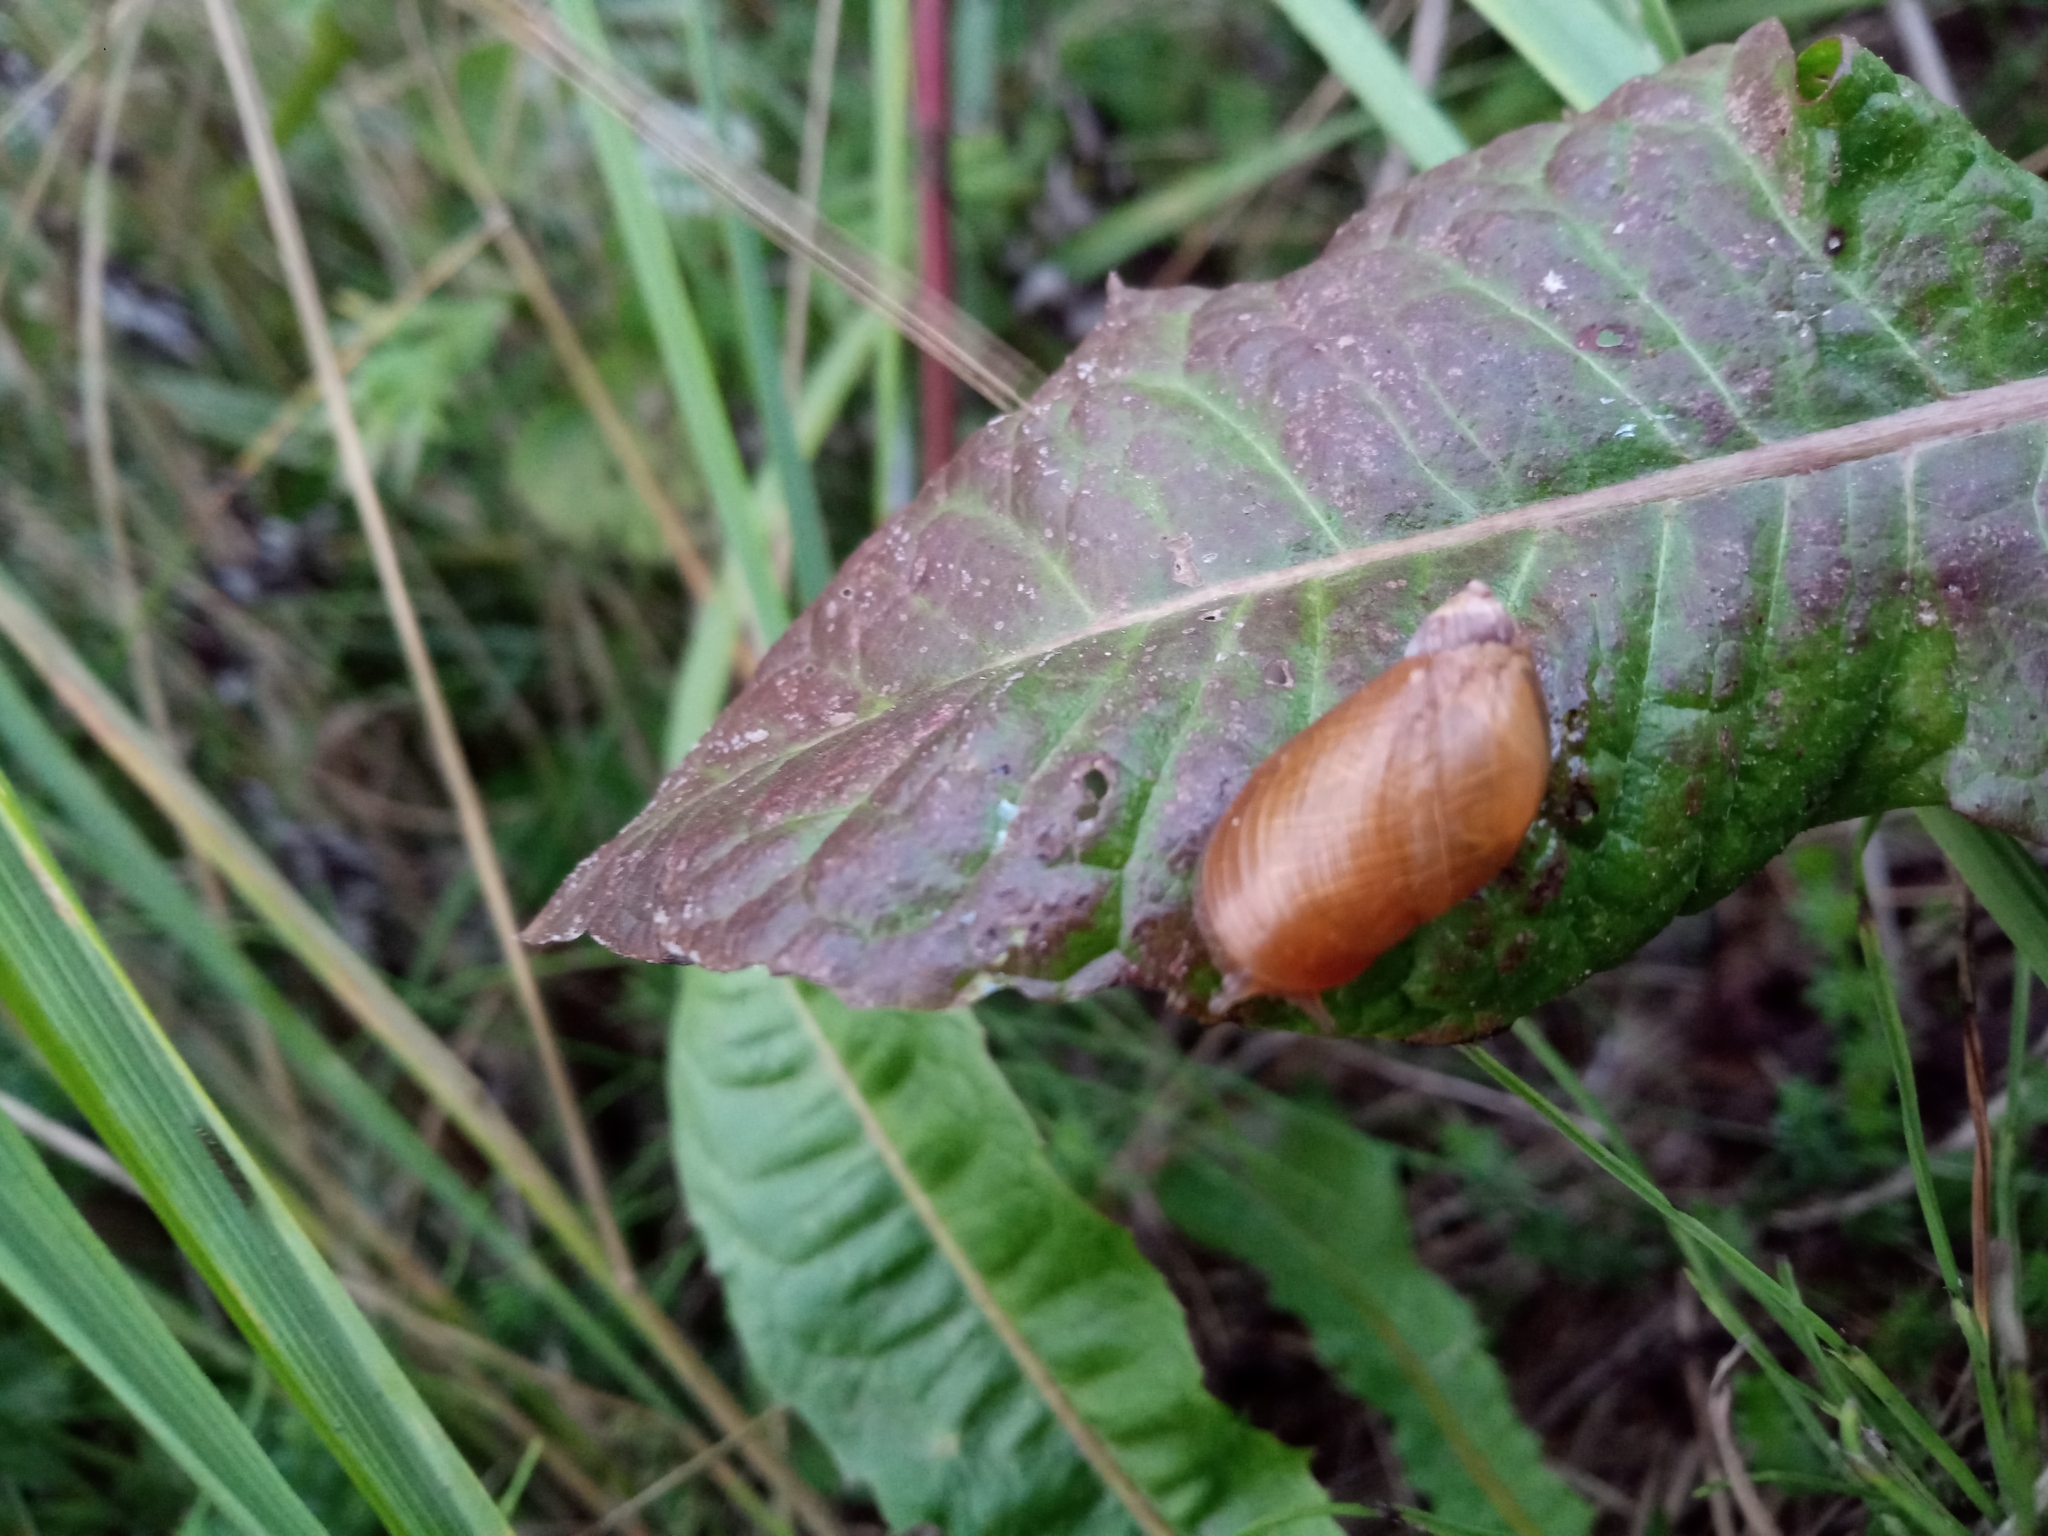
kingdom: Animalia
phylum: Mollusca
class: Gastropoda
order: Stylommatophora
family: Succineidae
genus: Succinea
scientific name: Succinea putris
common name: European ambersnail
